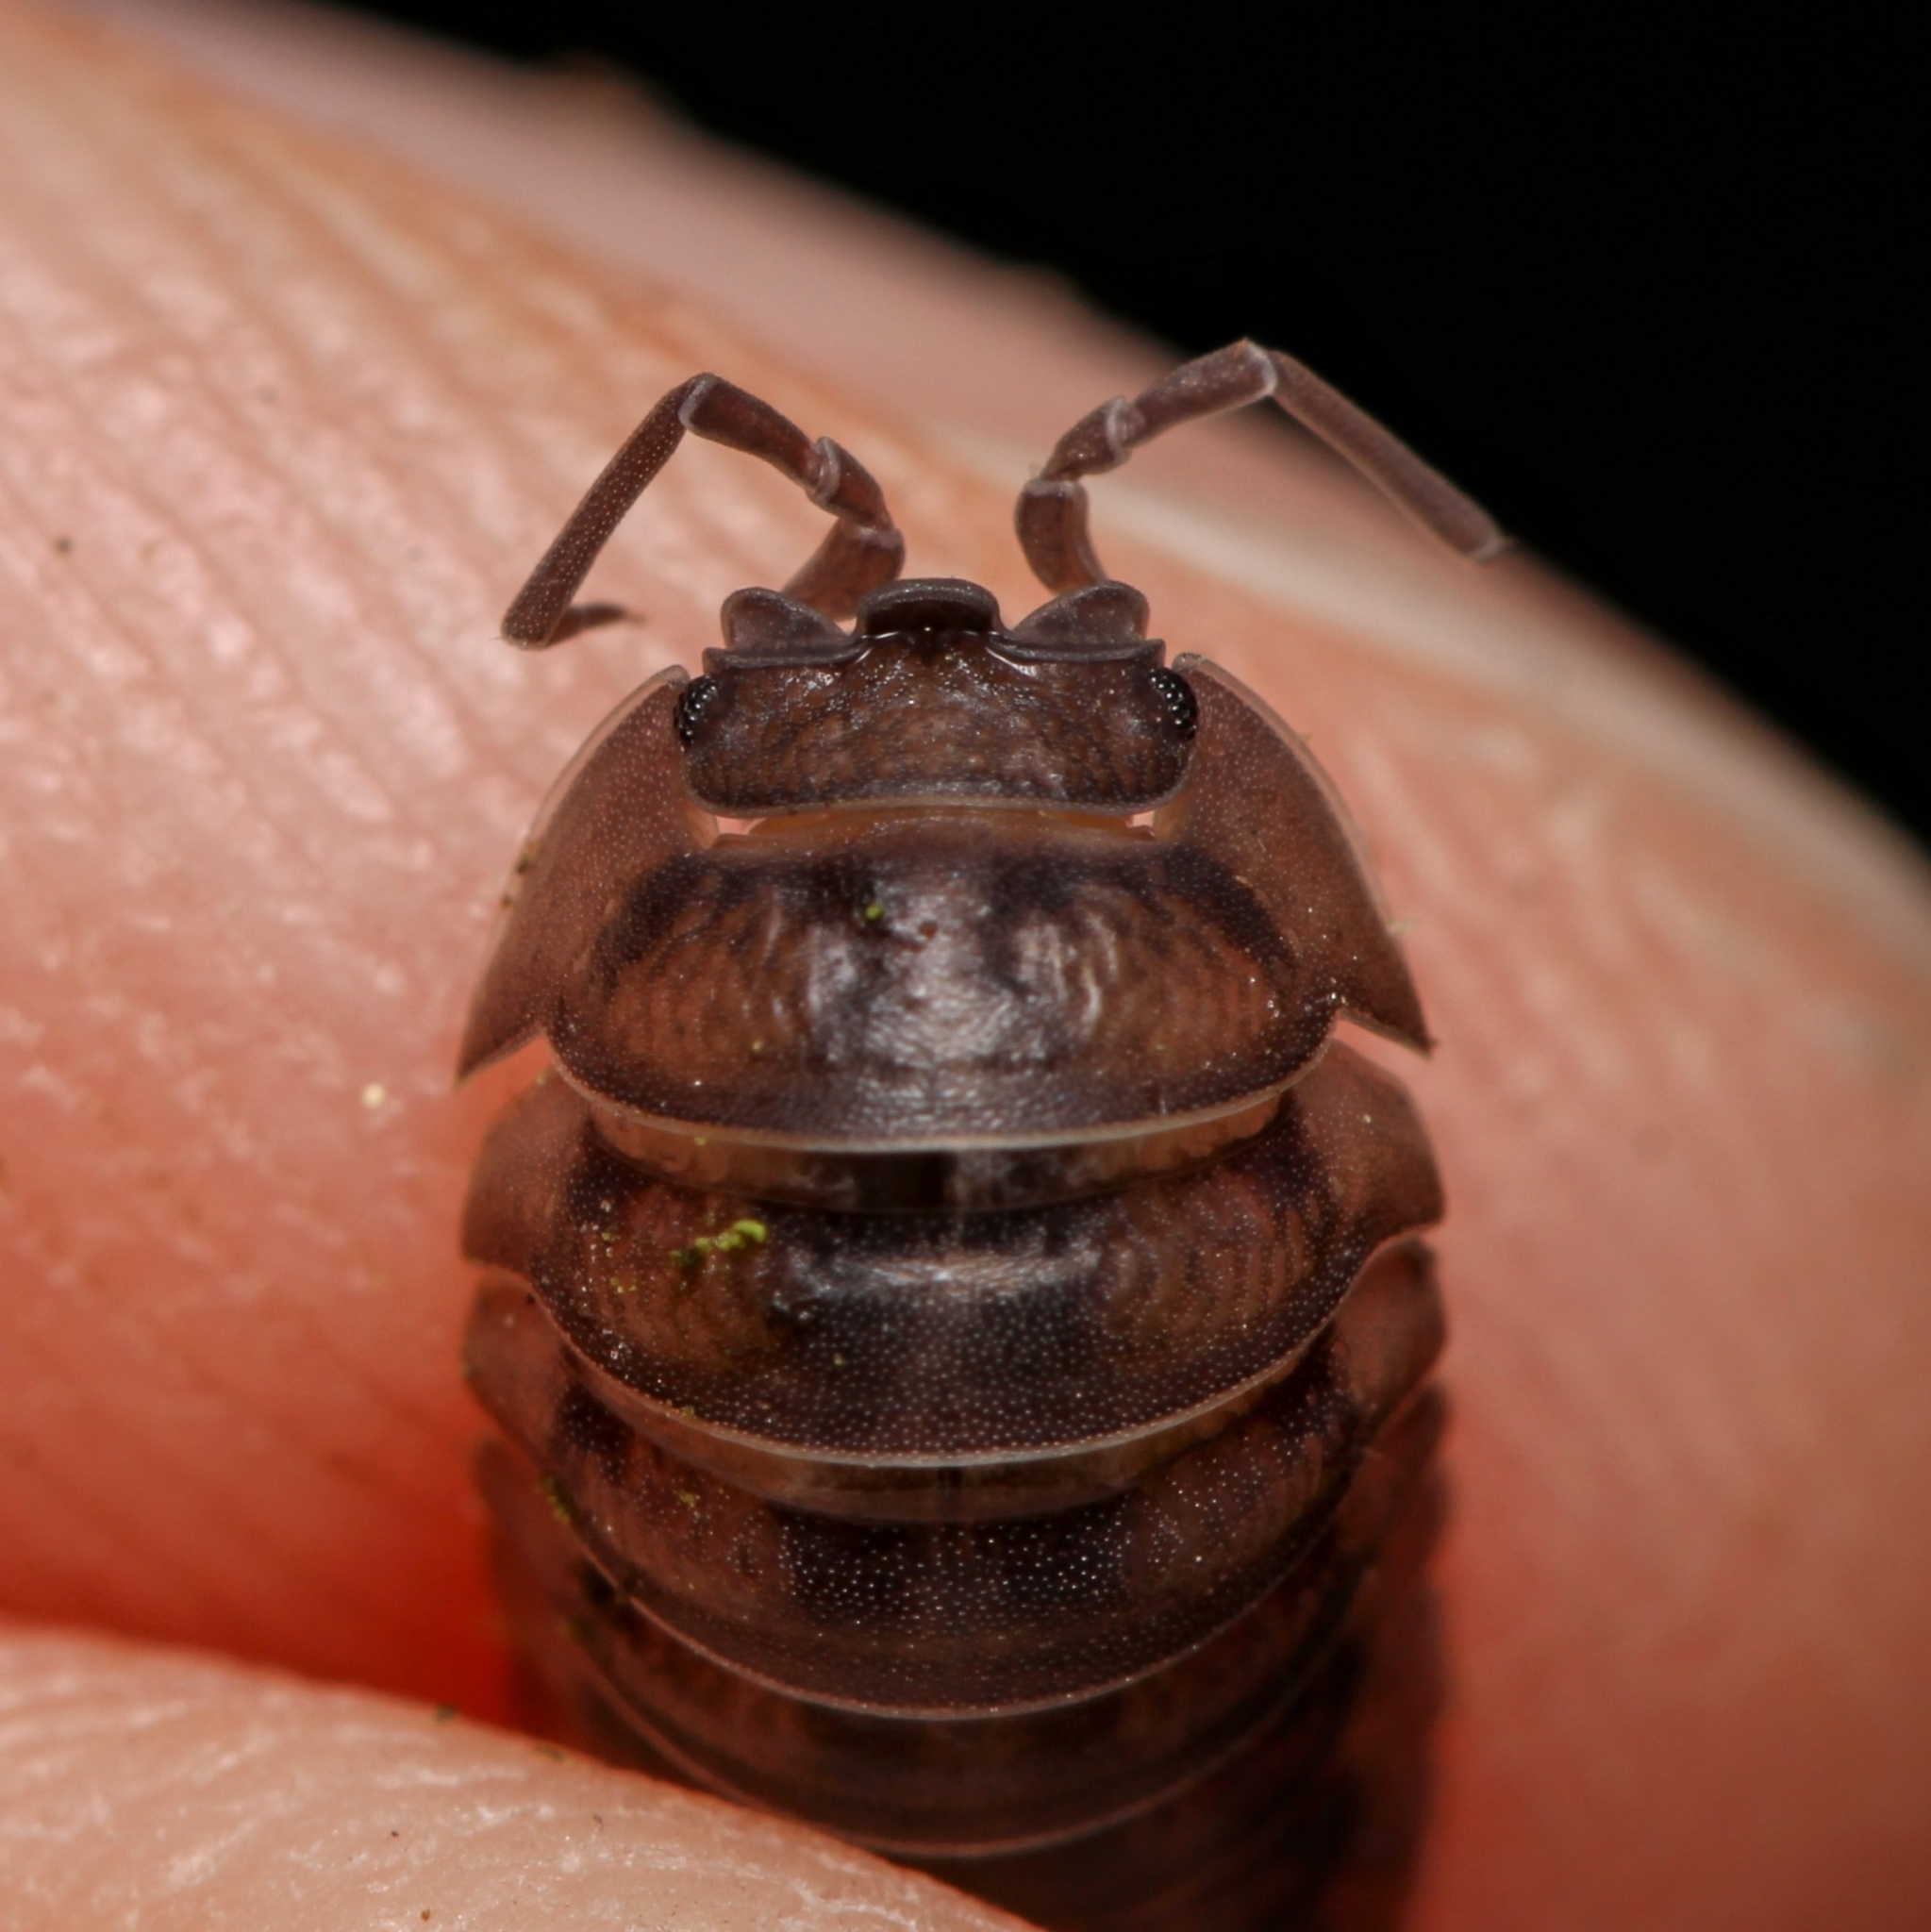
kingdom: Animalia
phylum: Arthropoda
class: Malacostraca
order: Isopoda
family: Armadillidiidae
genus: Armadillidium
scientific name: Armadillidium nasatum
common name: Isopod
